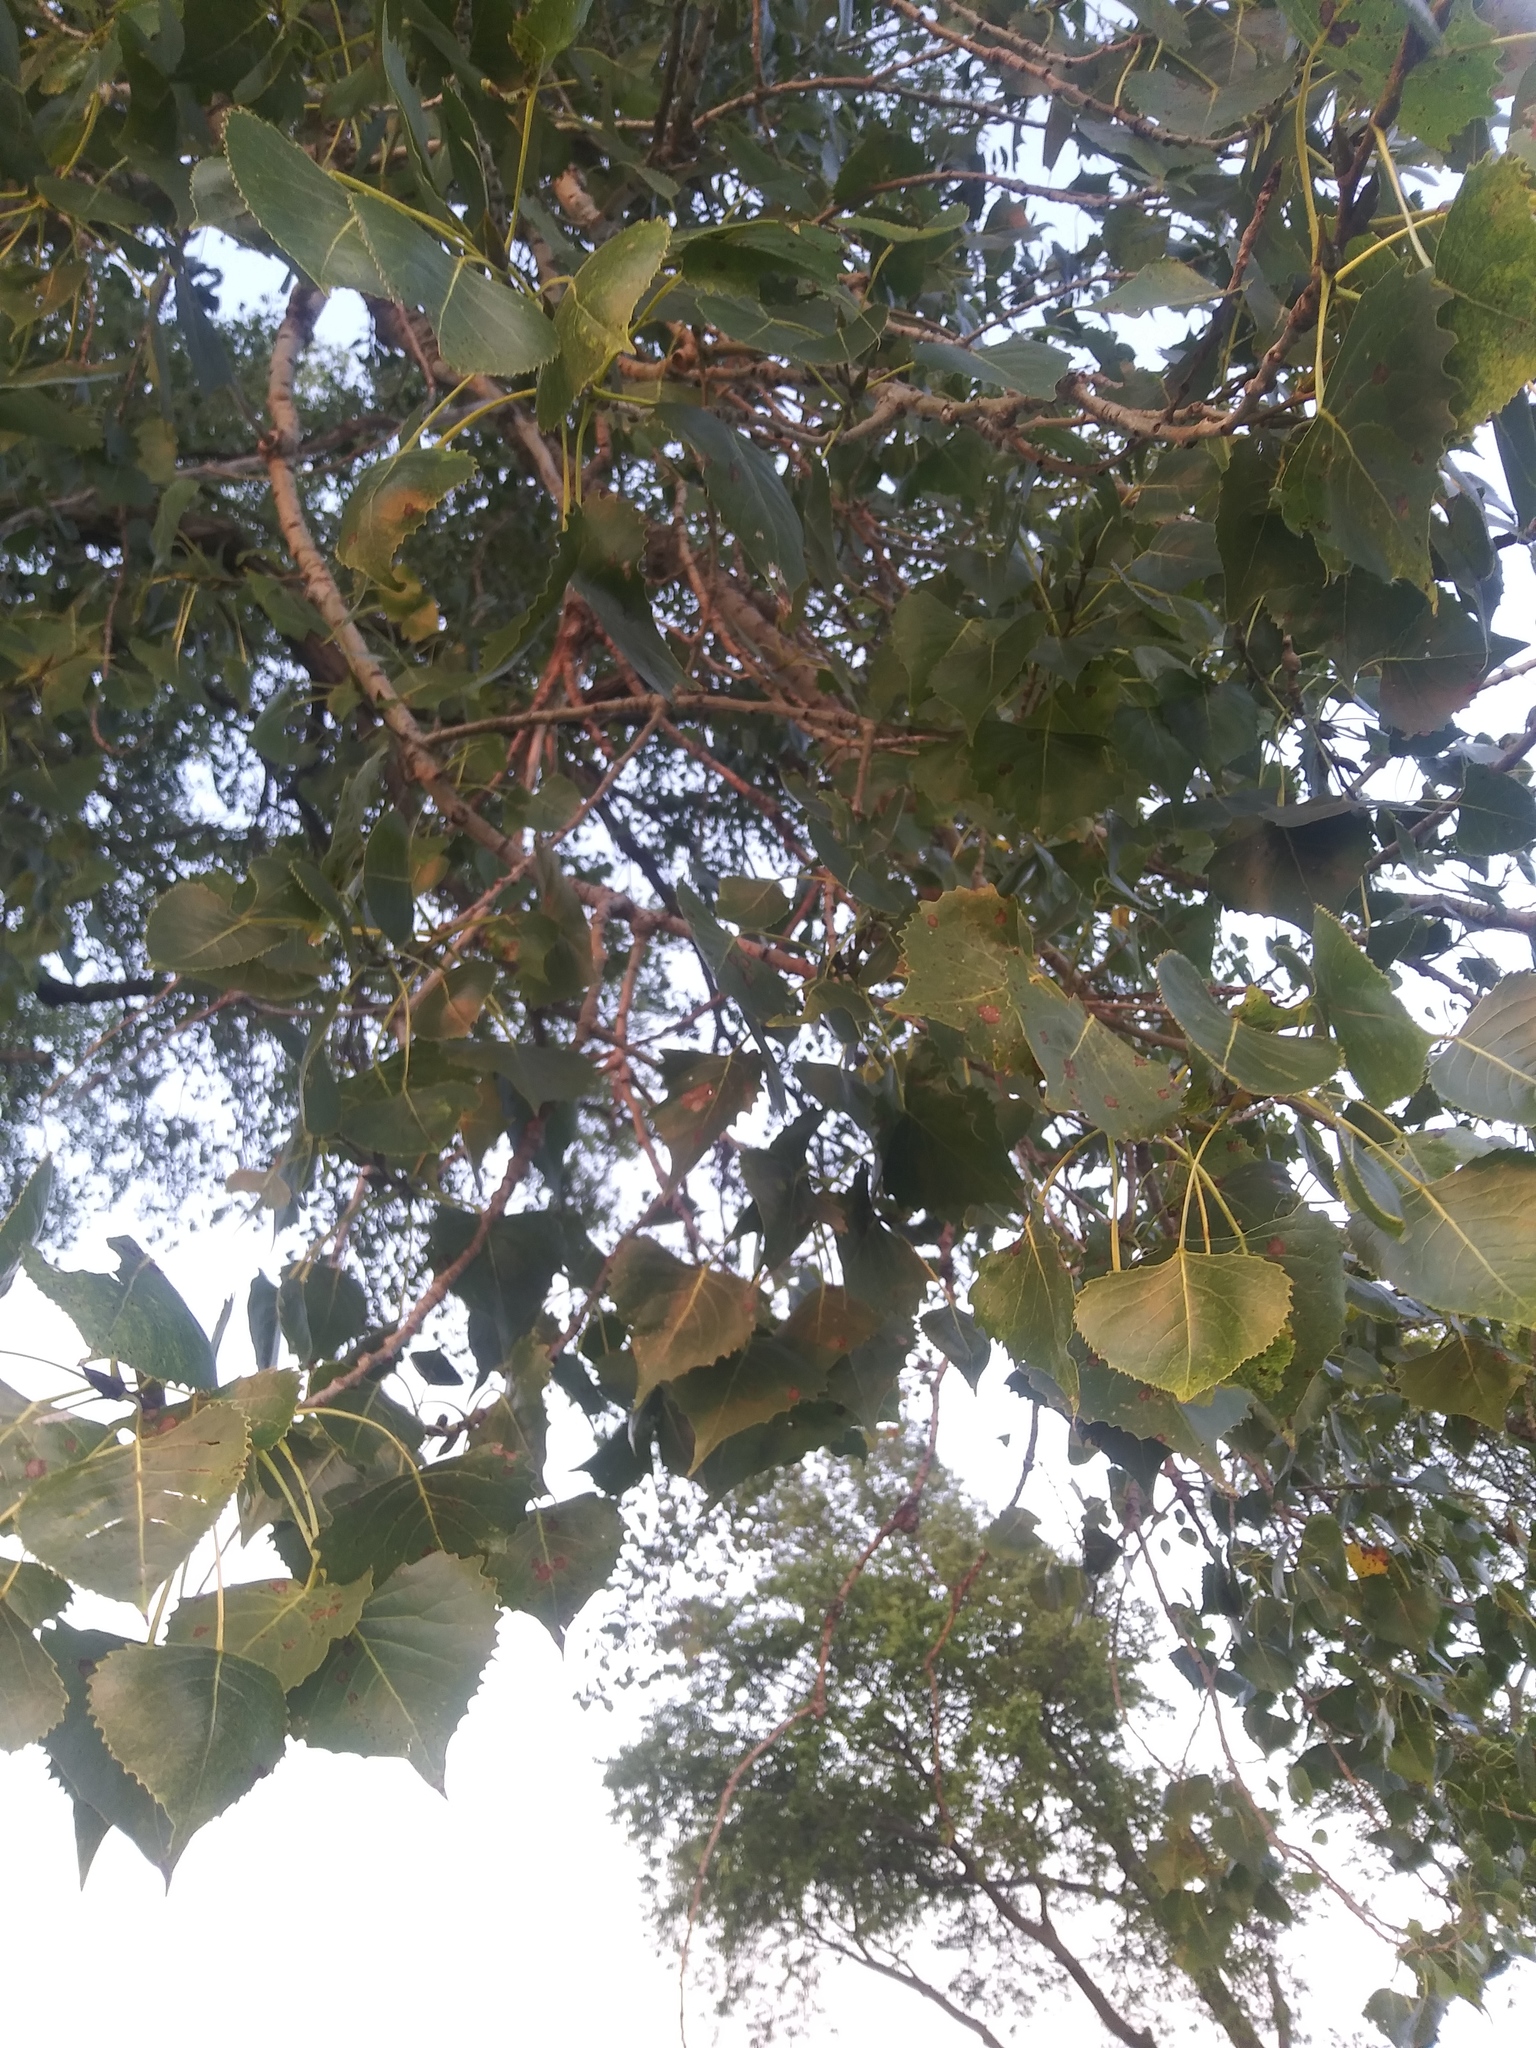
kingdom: Plantae
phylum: Tracheophyta
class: Magnoliopsida
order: Malpighiales
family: Salicaceae
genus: Populus
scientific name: Populus deltoides
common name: Eastern cottonwood
